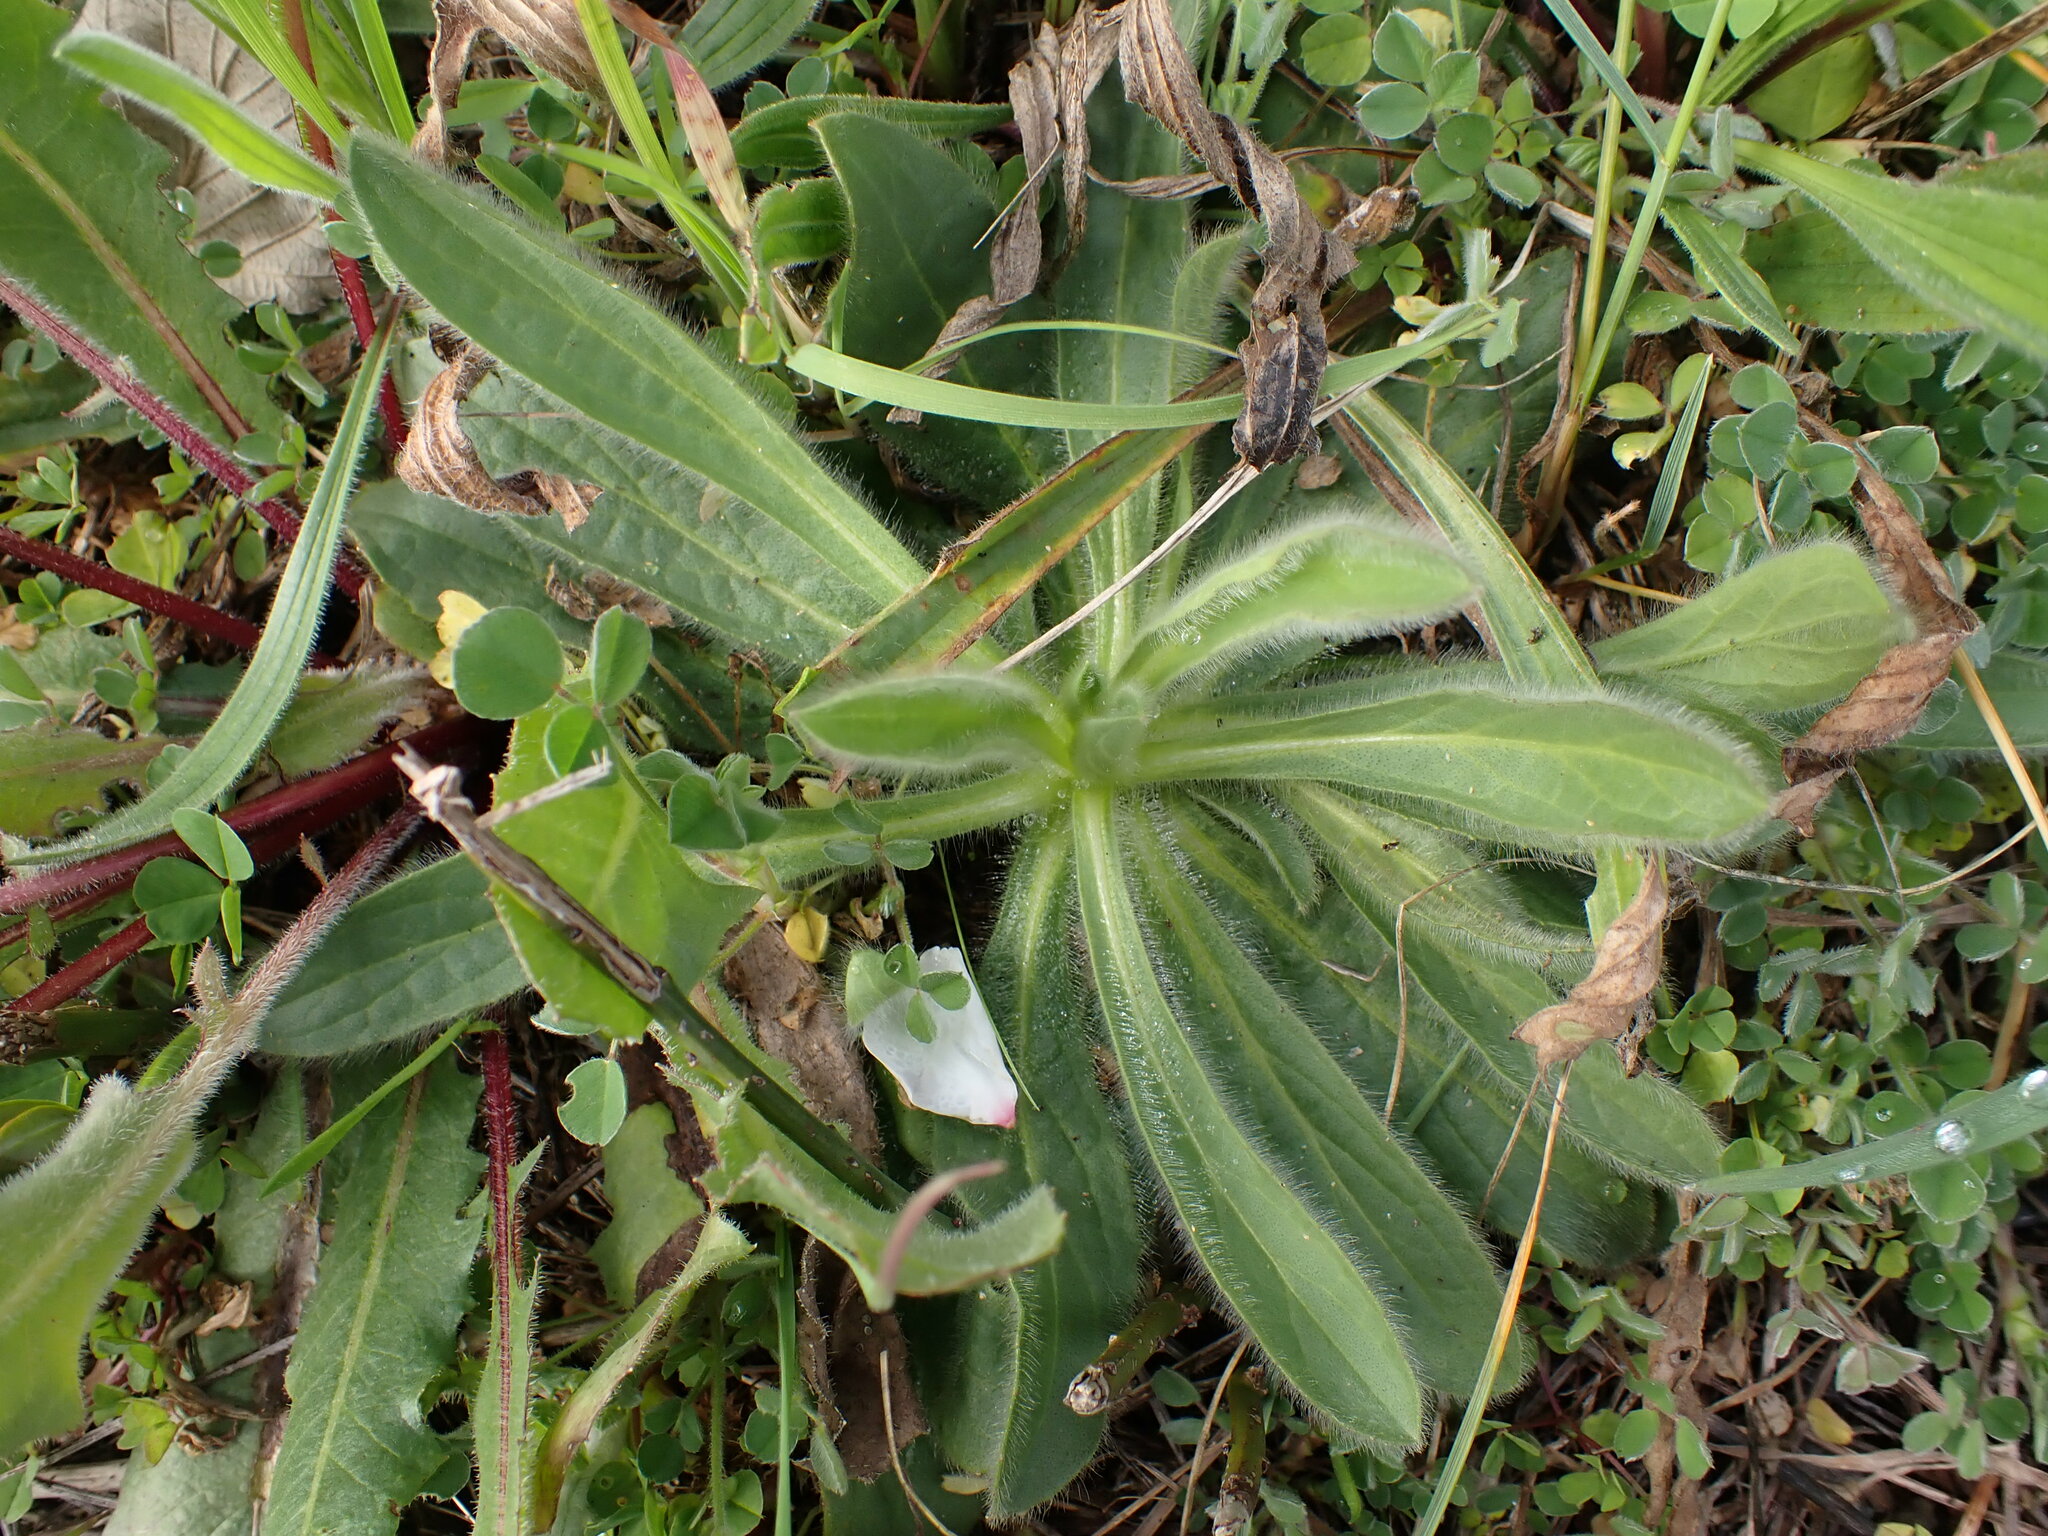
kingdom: Plantae
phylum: Tracheophyta
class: Magnoliopsida
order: Asterales
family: Asteraceae
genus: Pallenis
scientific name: Pallenis spinosa
